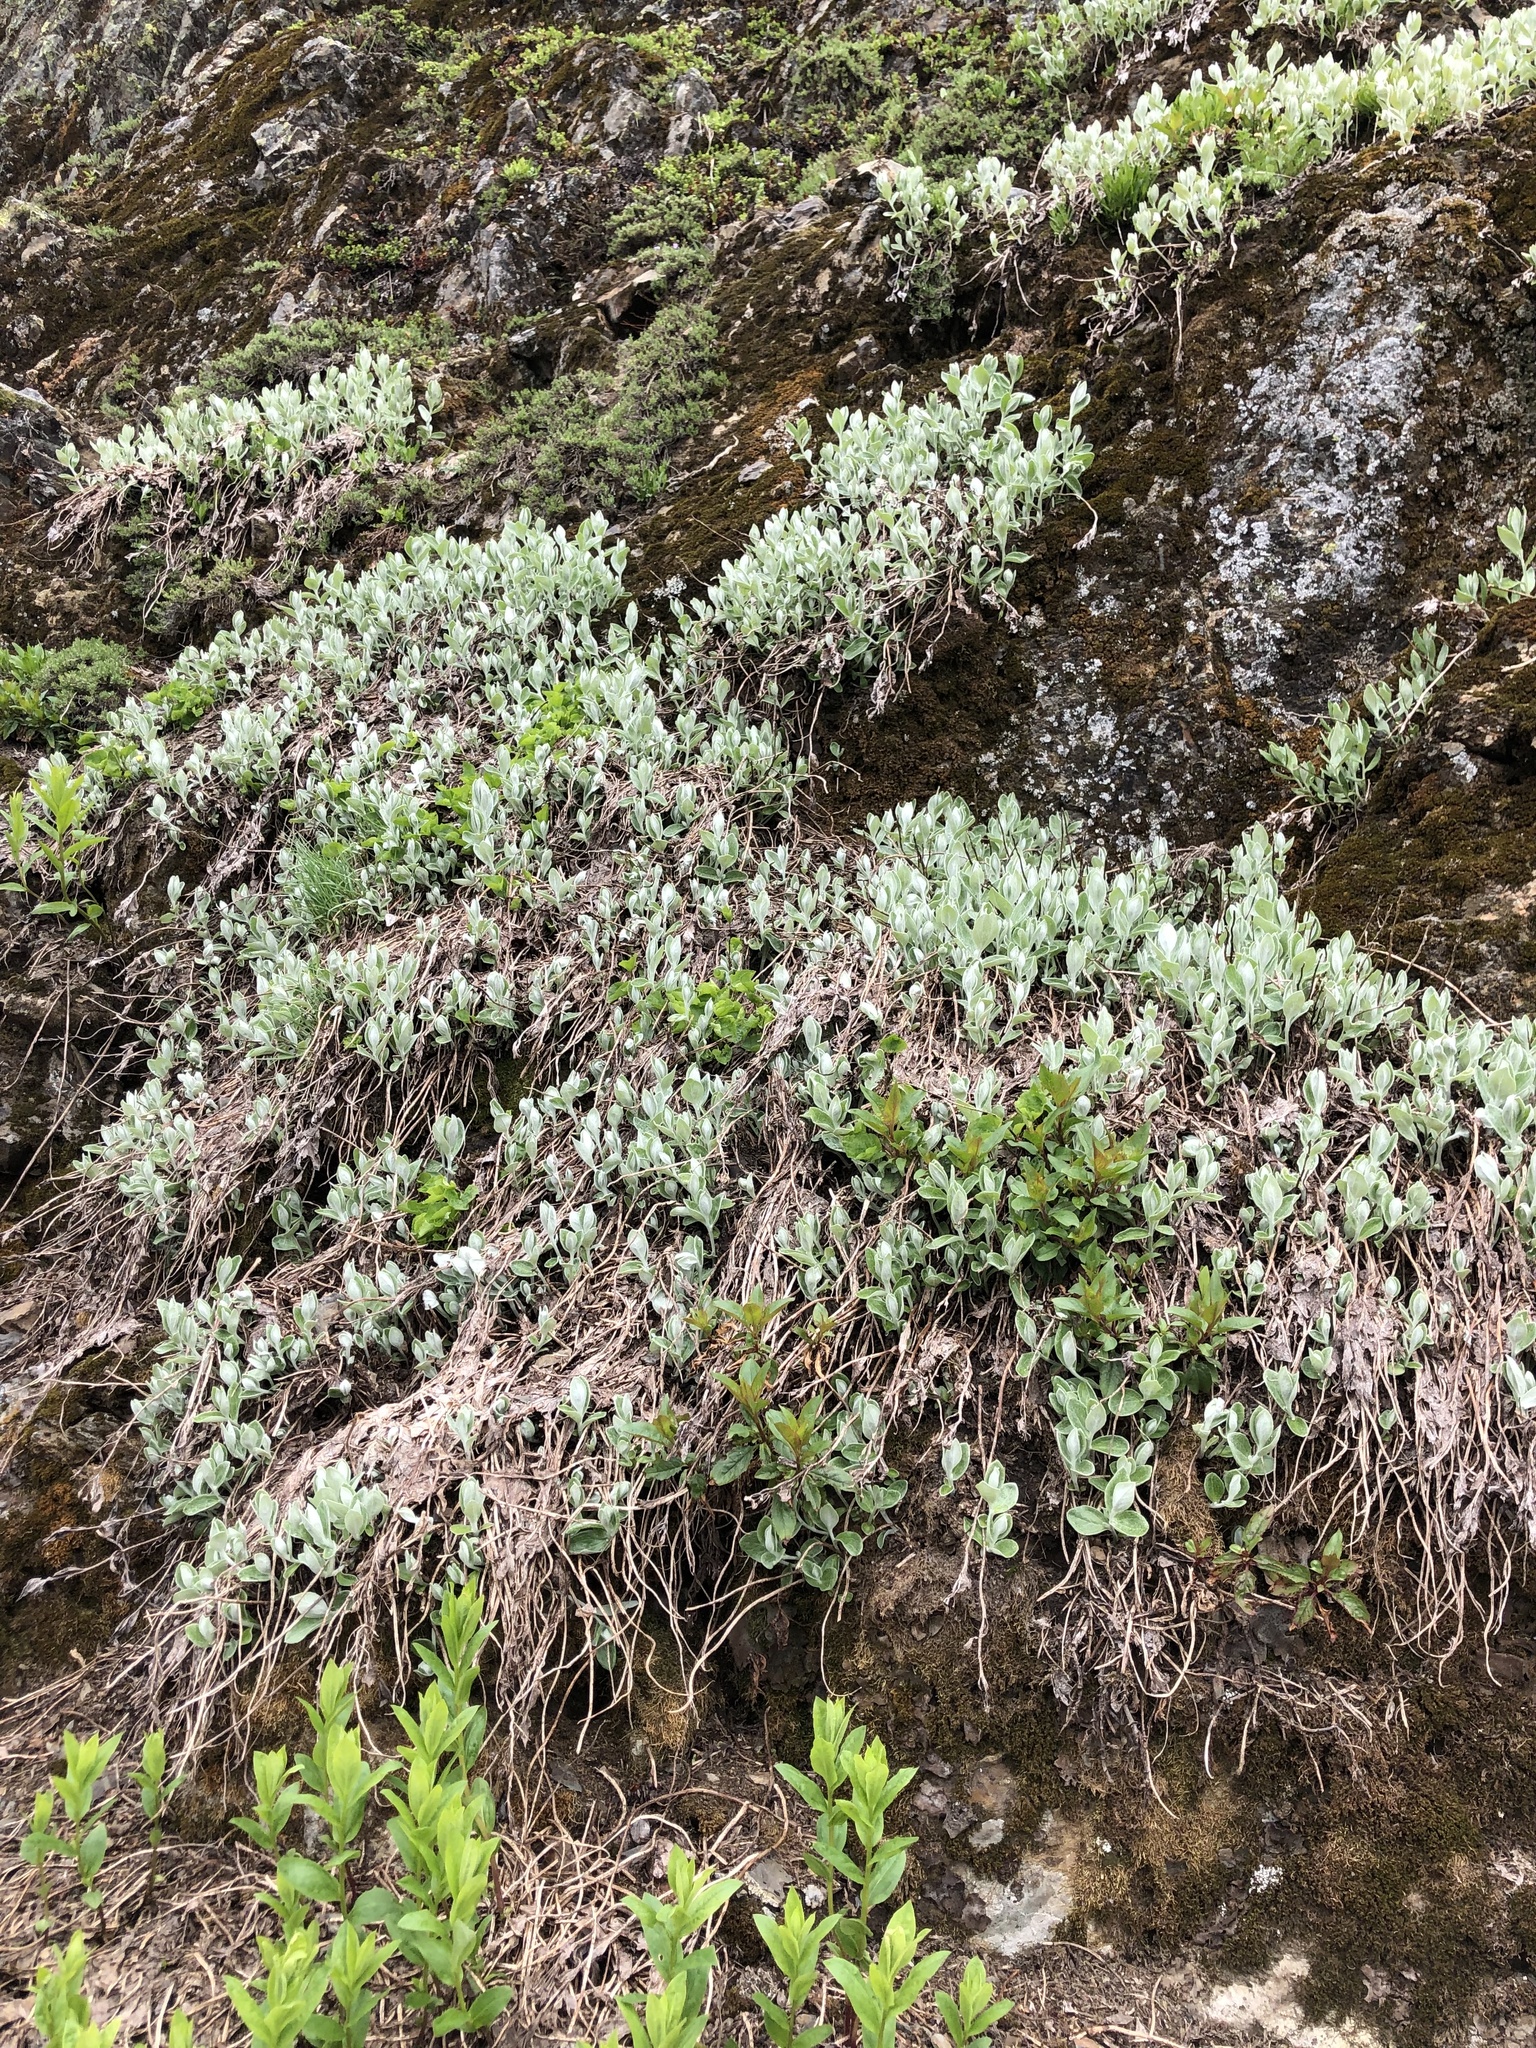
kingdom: Plantae
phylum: Tracheophyta
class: Magnoliopsida
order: Asterales
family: Asteraceae
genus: Luina
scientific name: Luina hypoleuca
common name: Little-leaved luina
